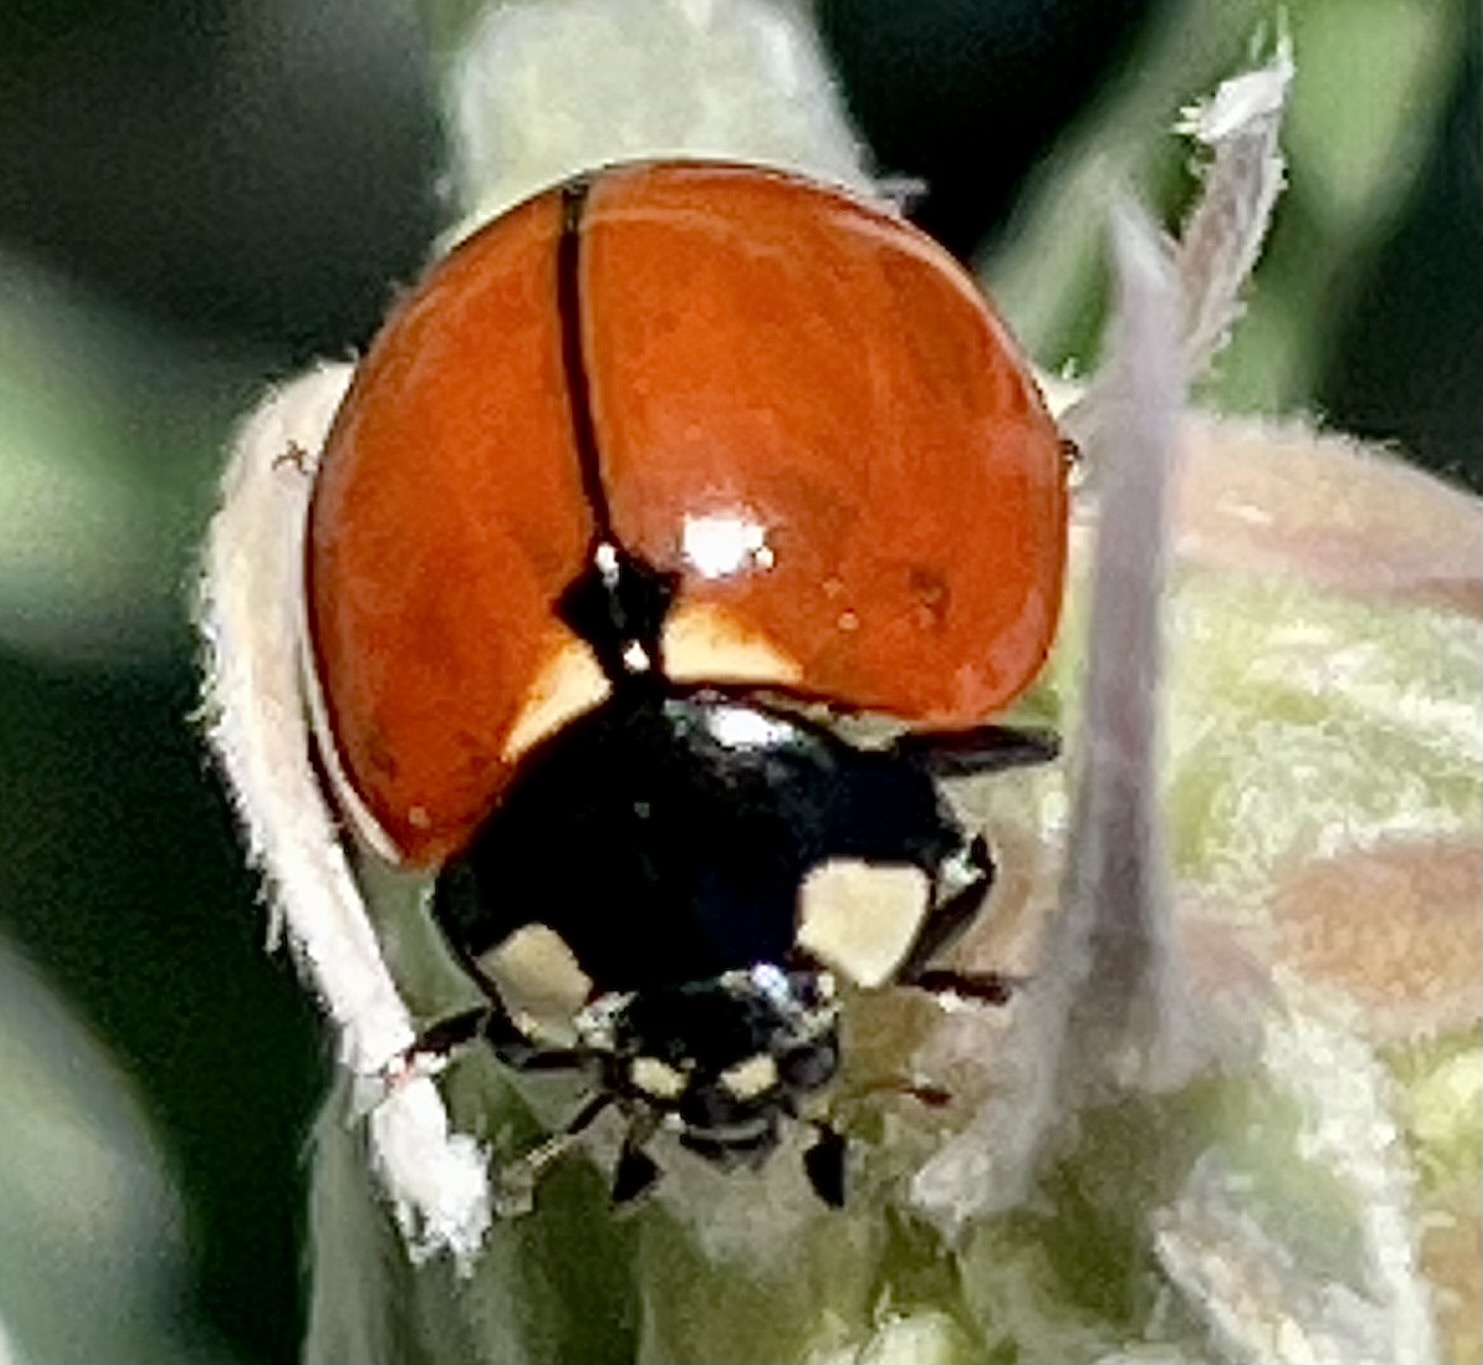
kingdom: Animalia
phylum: Arthropoda
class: Insecta
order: Coleoptera
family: Coccinellidae
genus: Coccinella
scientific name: Coccinella californica
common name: Lady beetle
